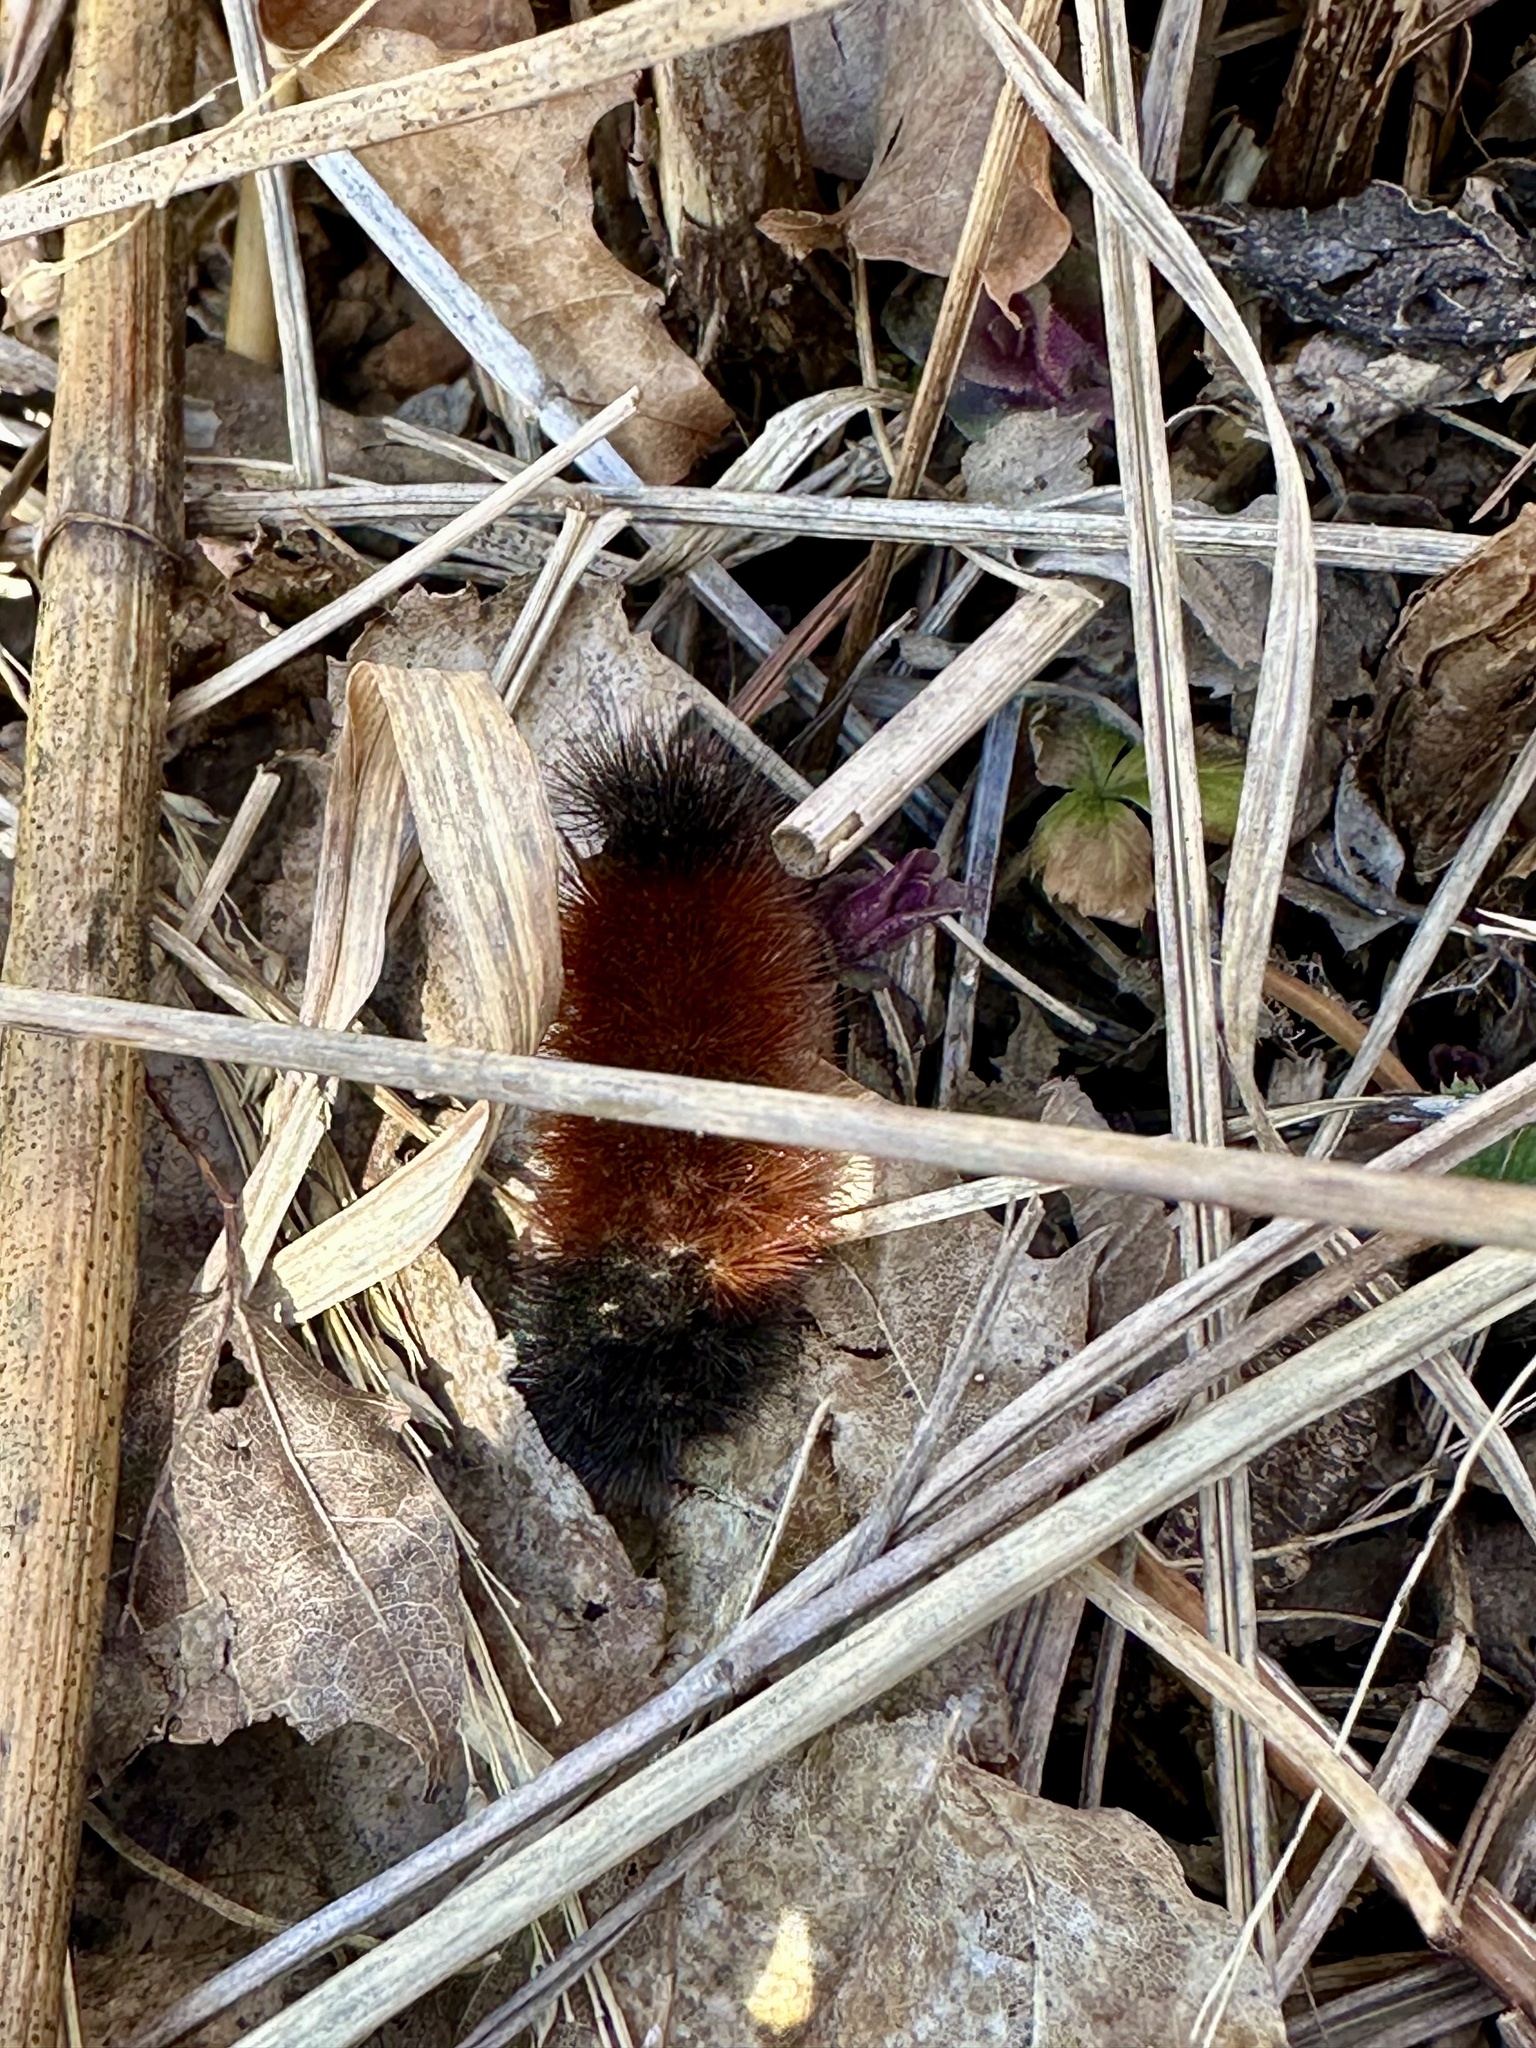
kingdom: Animalia
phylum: Arthropoda
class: Insecta
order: Lepidoptera
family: Erebidae
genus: Pyrrharctia
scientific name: Pyrrharctia isabella
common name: Isabella tiger moth
